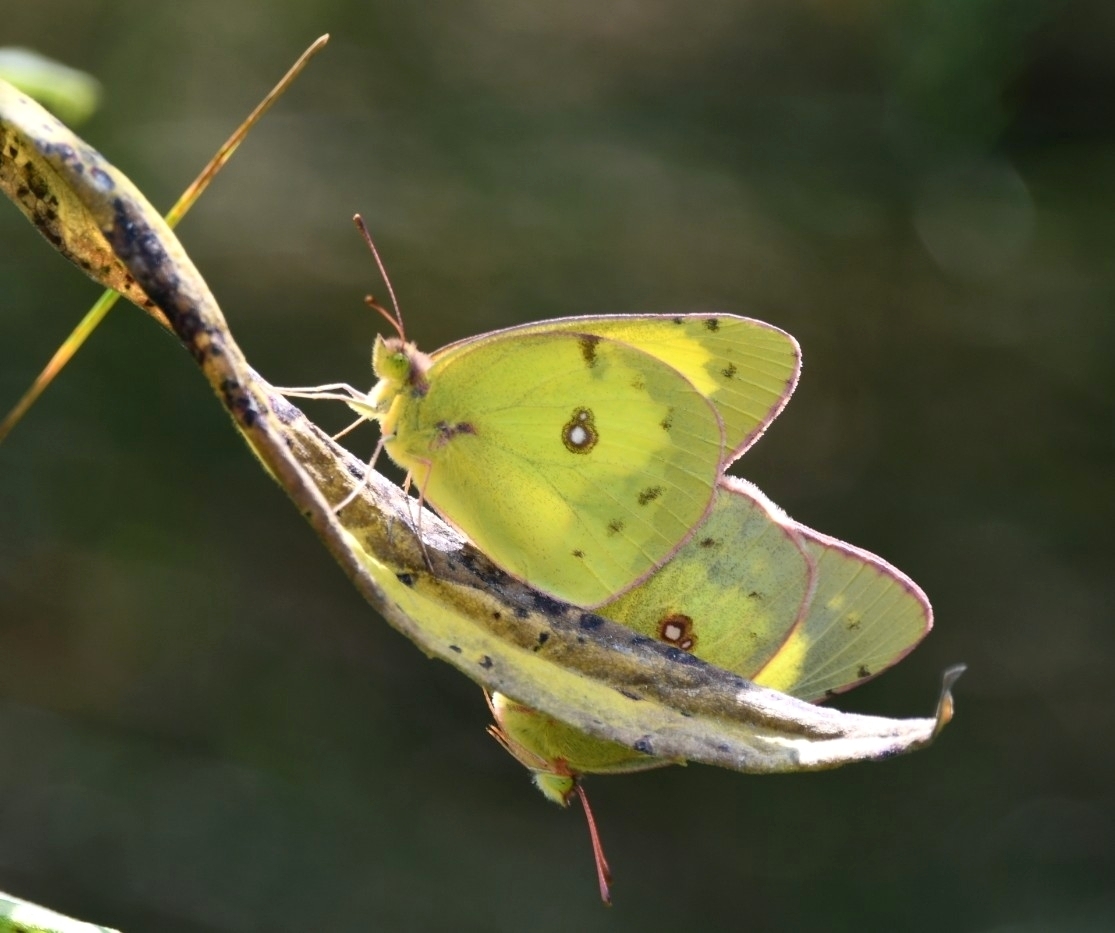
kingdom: Animalia
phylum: Arthropoda
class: Insecta
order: Lepidoptera
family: Pieridae
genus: Colias
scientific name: Colias philodice
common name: Clouded sulphur
